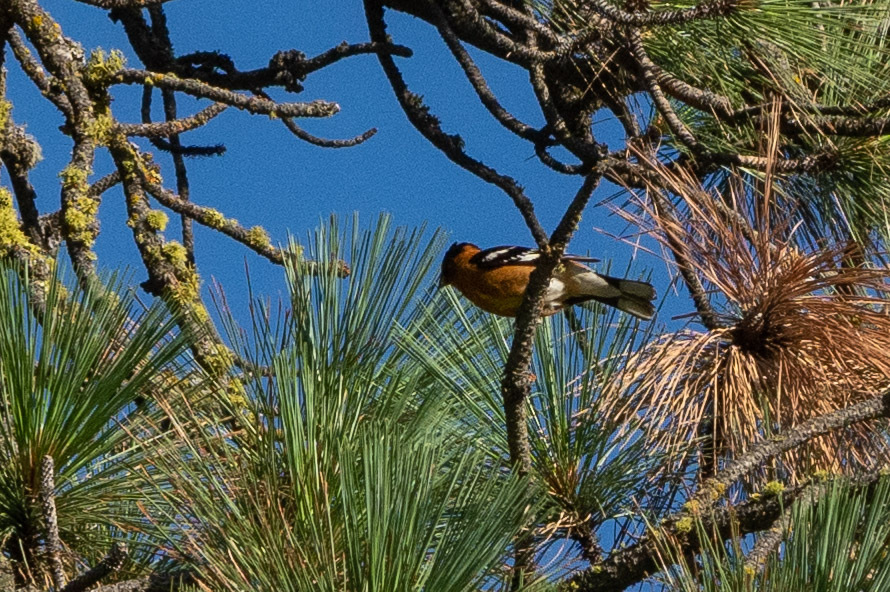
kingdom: Animalia
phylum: Chordata
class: Aves
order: Passeriformes
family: Cardinalidae
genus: Pheucticus
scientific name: Pheucticus melanocephalus
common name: Black-headed grosbeak
